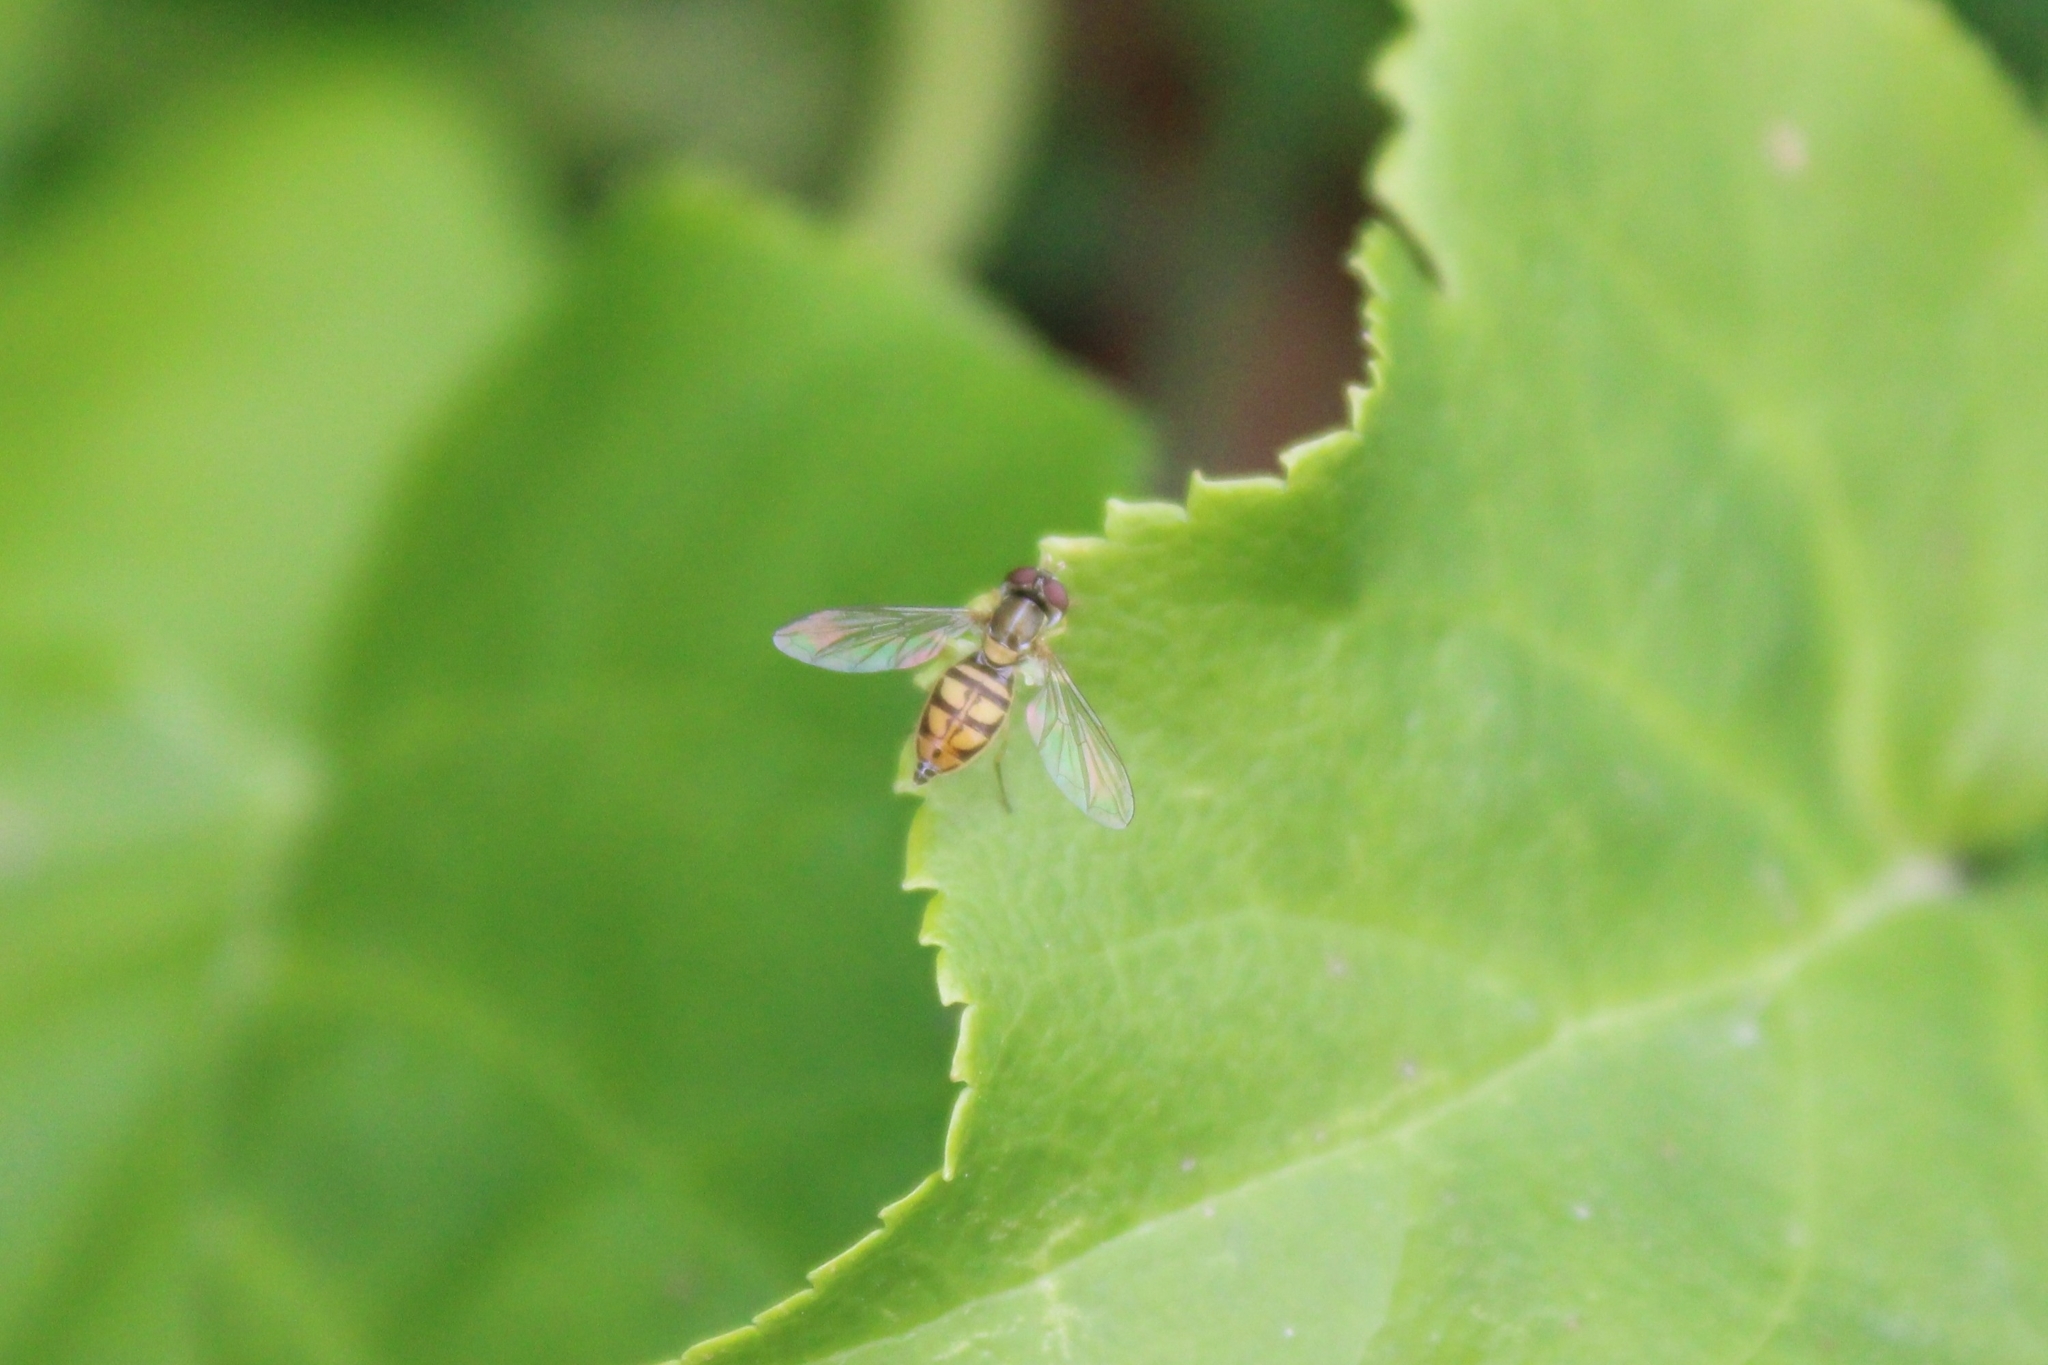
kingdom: Animalia
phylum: Arthropoda
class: Insecta
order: Diptera
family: Syrphidae
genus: Toxomerus
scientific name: Toxomerus marginatus
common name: Syrphid fly
